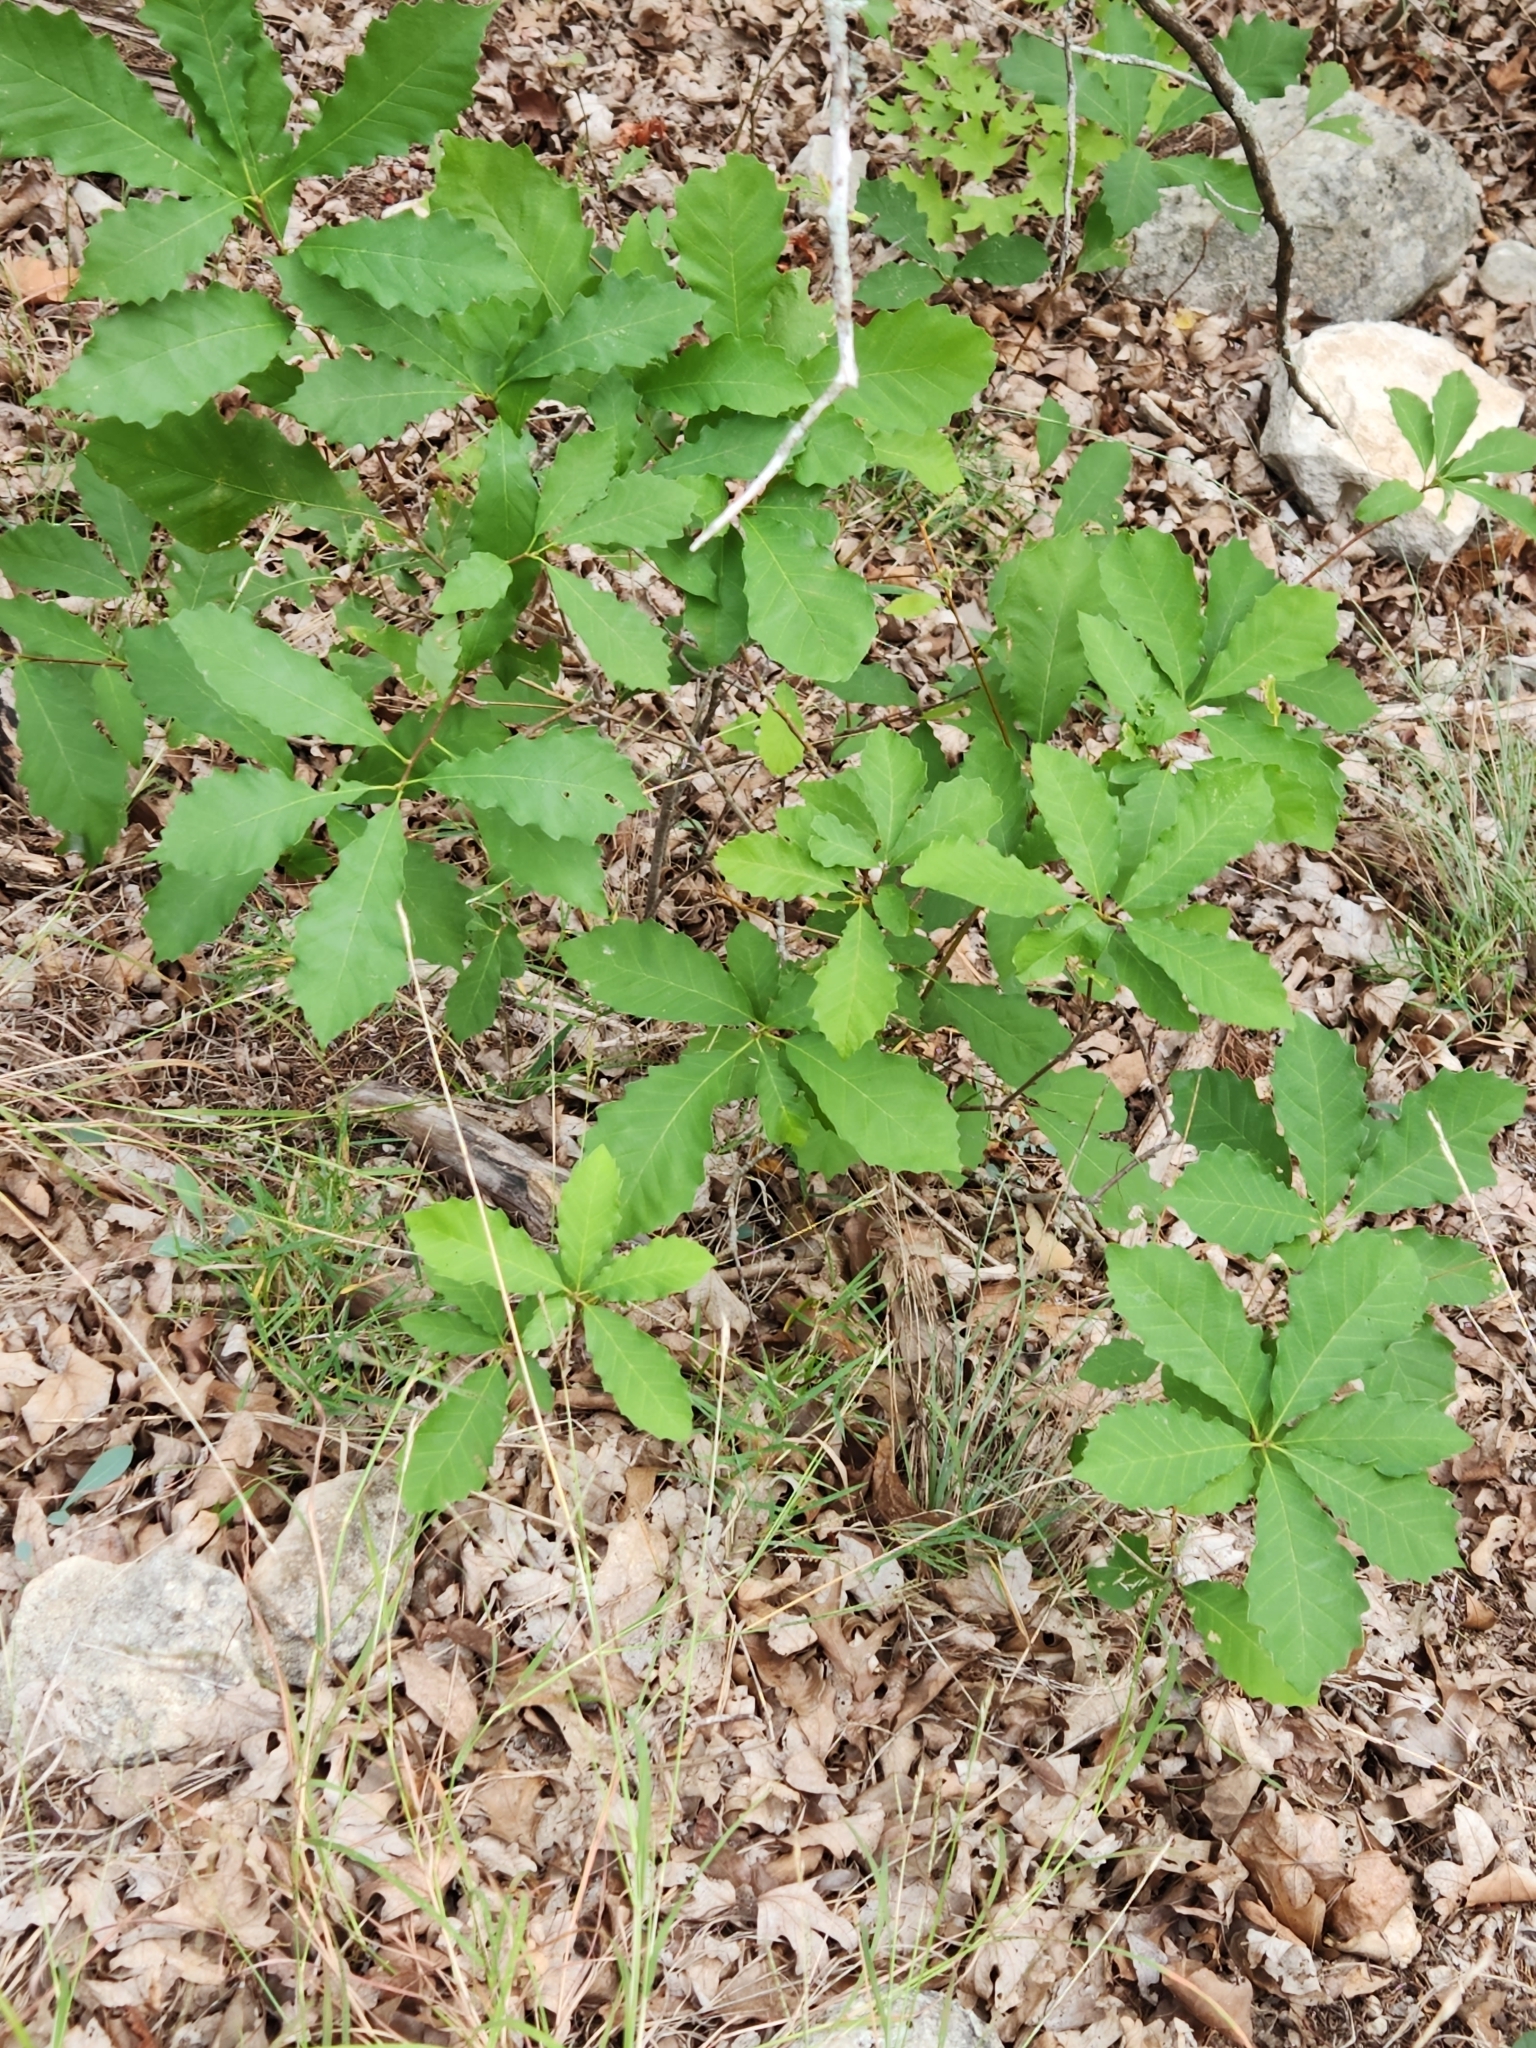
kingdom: Plantae
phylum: Tracheophyta
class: Magnoliopsida
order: Fagales
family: Fagaceae
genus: Quercus
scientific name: Quercus muehlenbergii
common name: Chinkapin oak
